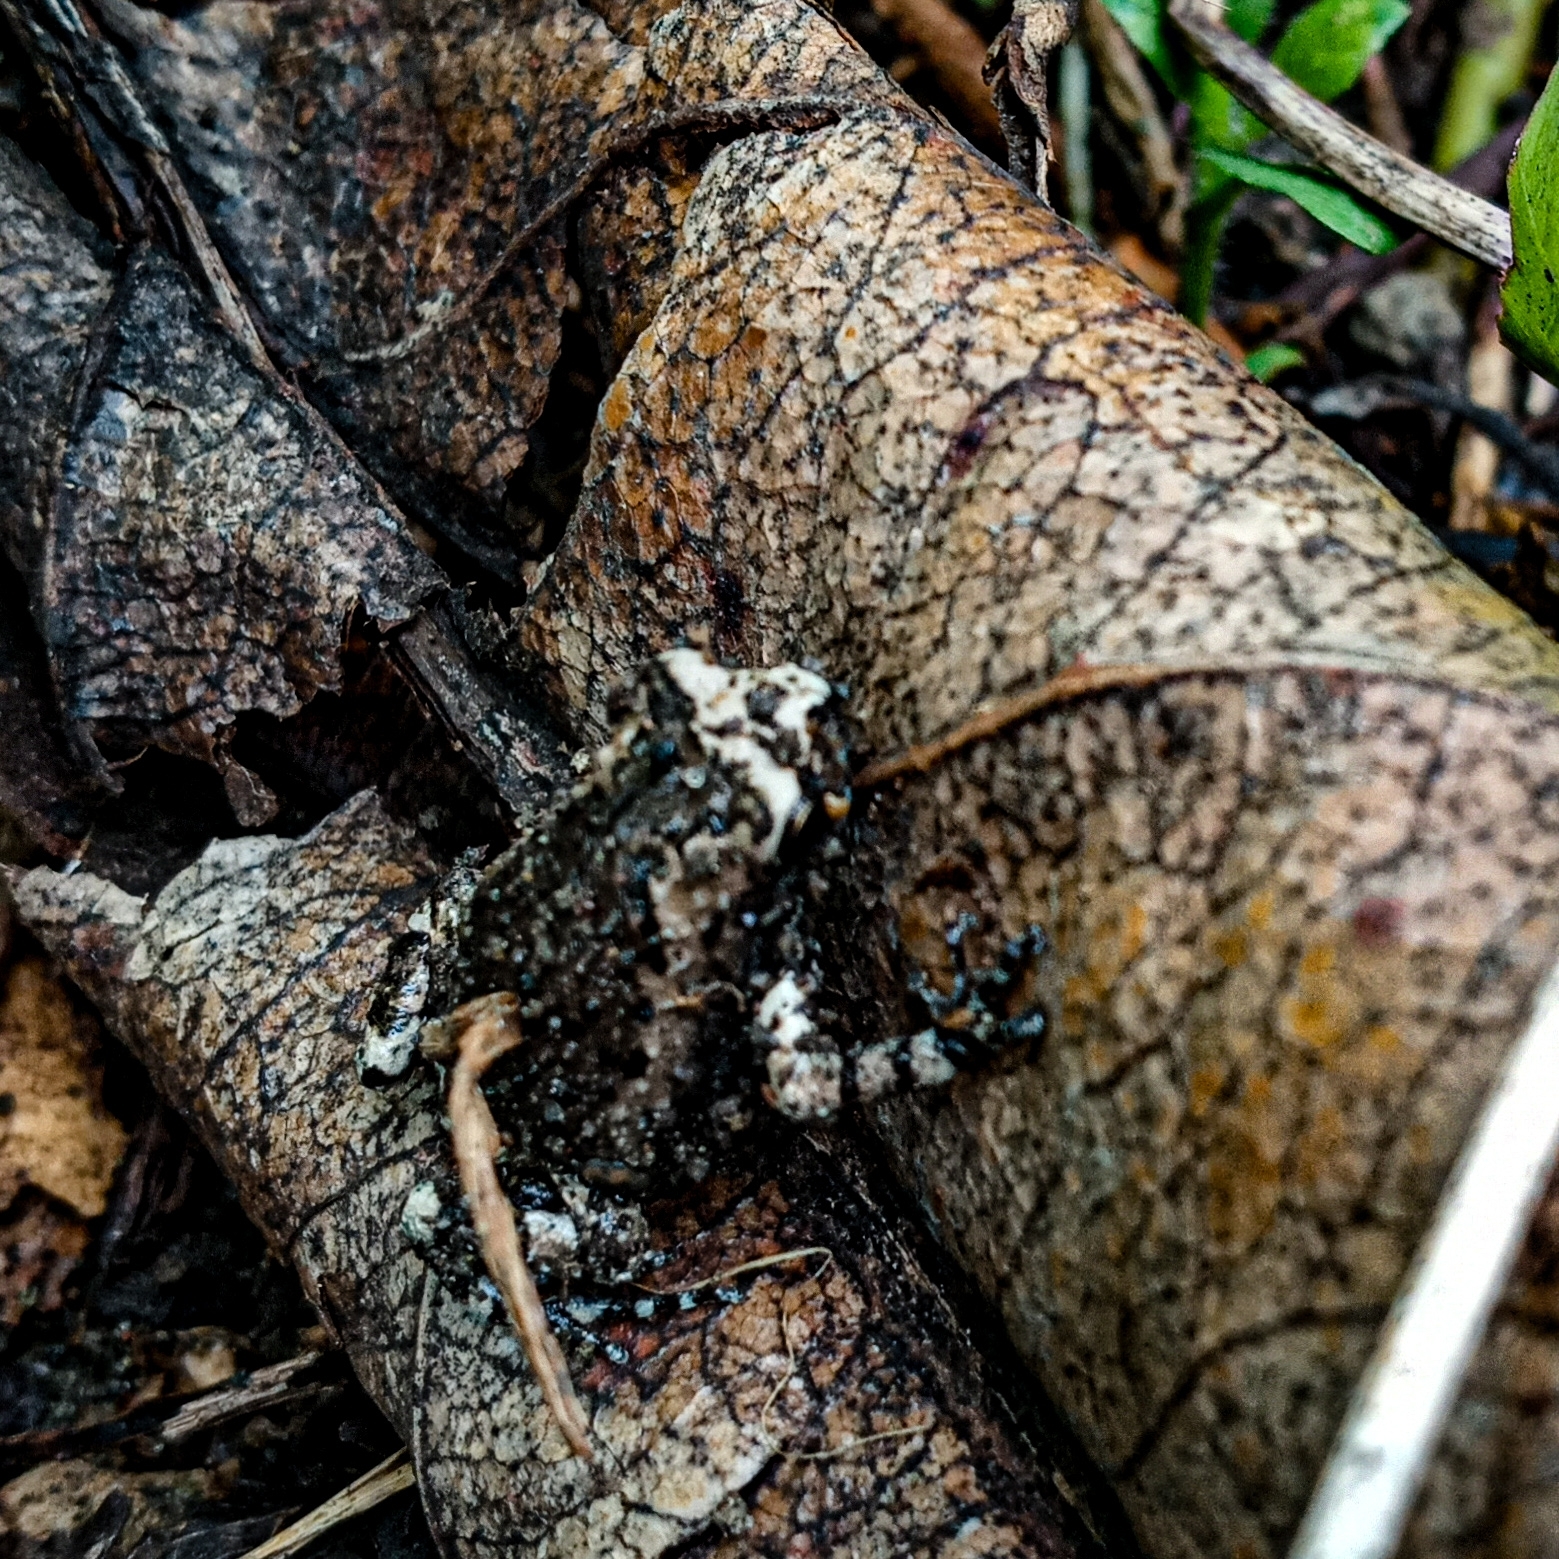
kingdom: Animalia
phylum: Chordata
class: Amphibia
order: Anura
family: Microhylidae
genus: Kaloula
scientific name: Kaloula pulchra
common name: Common,banded bullfrog
